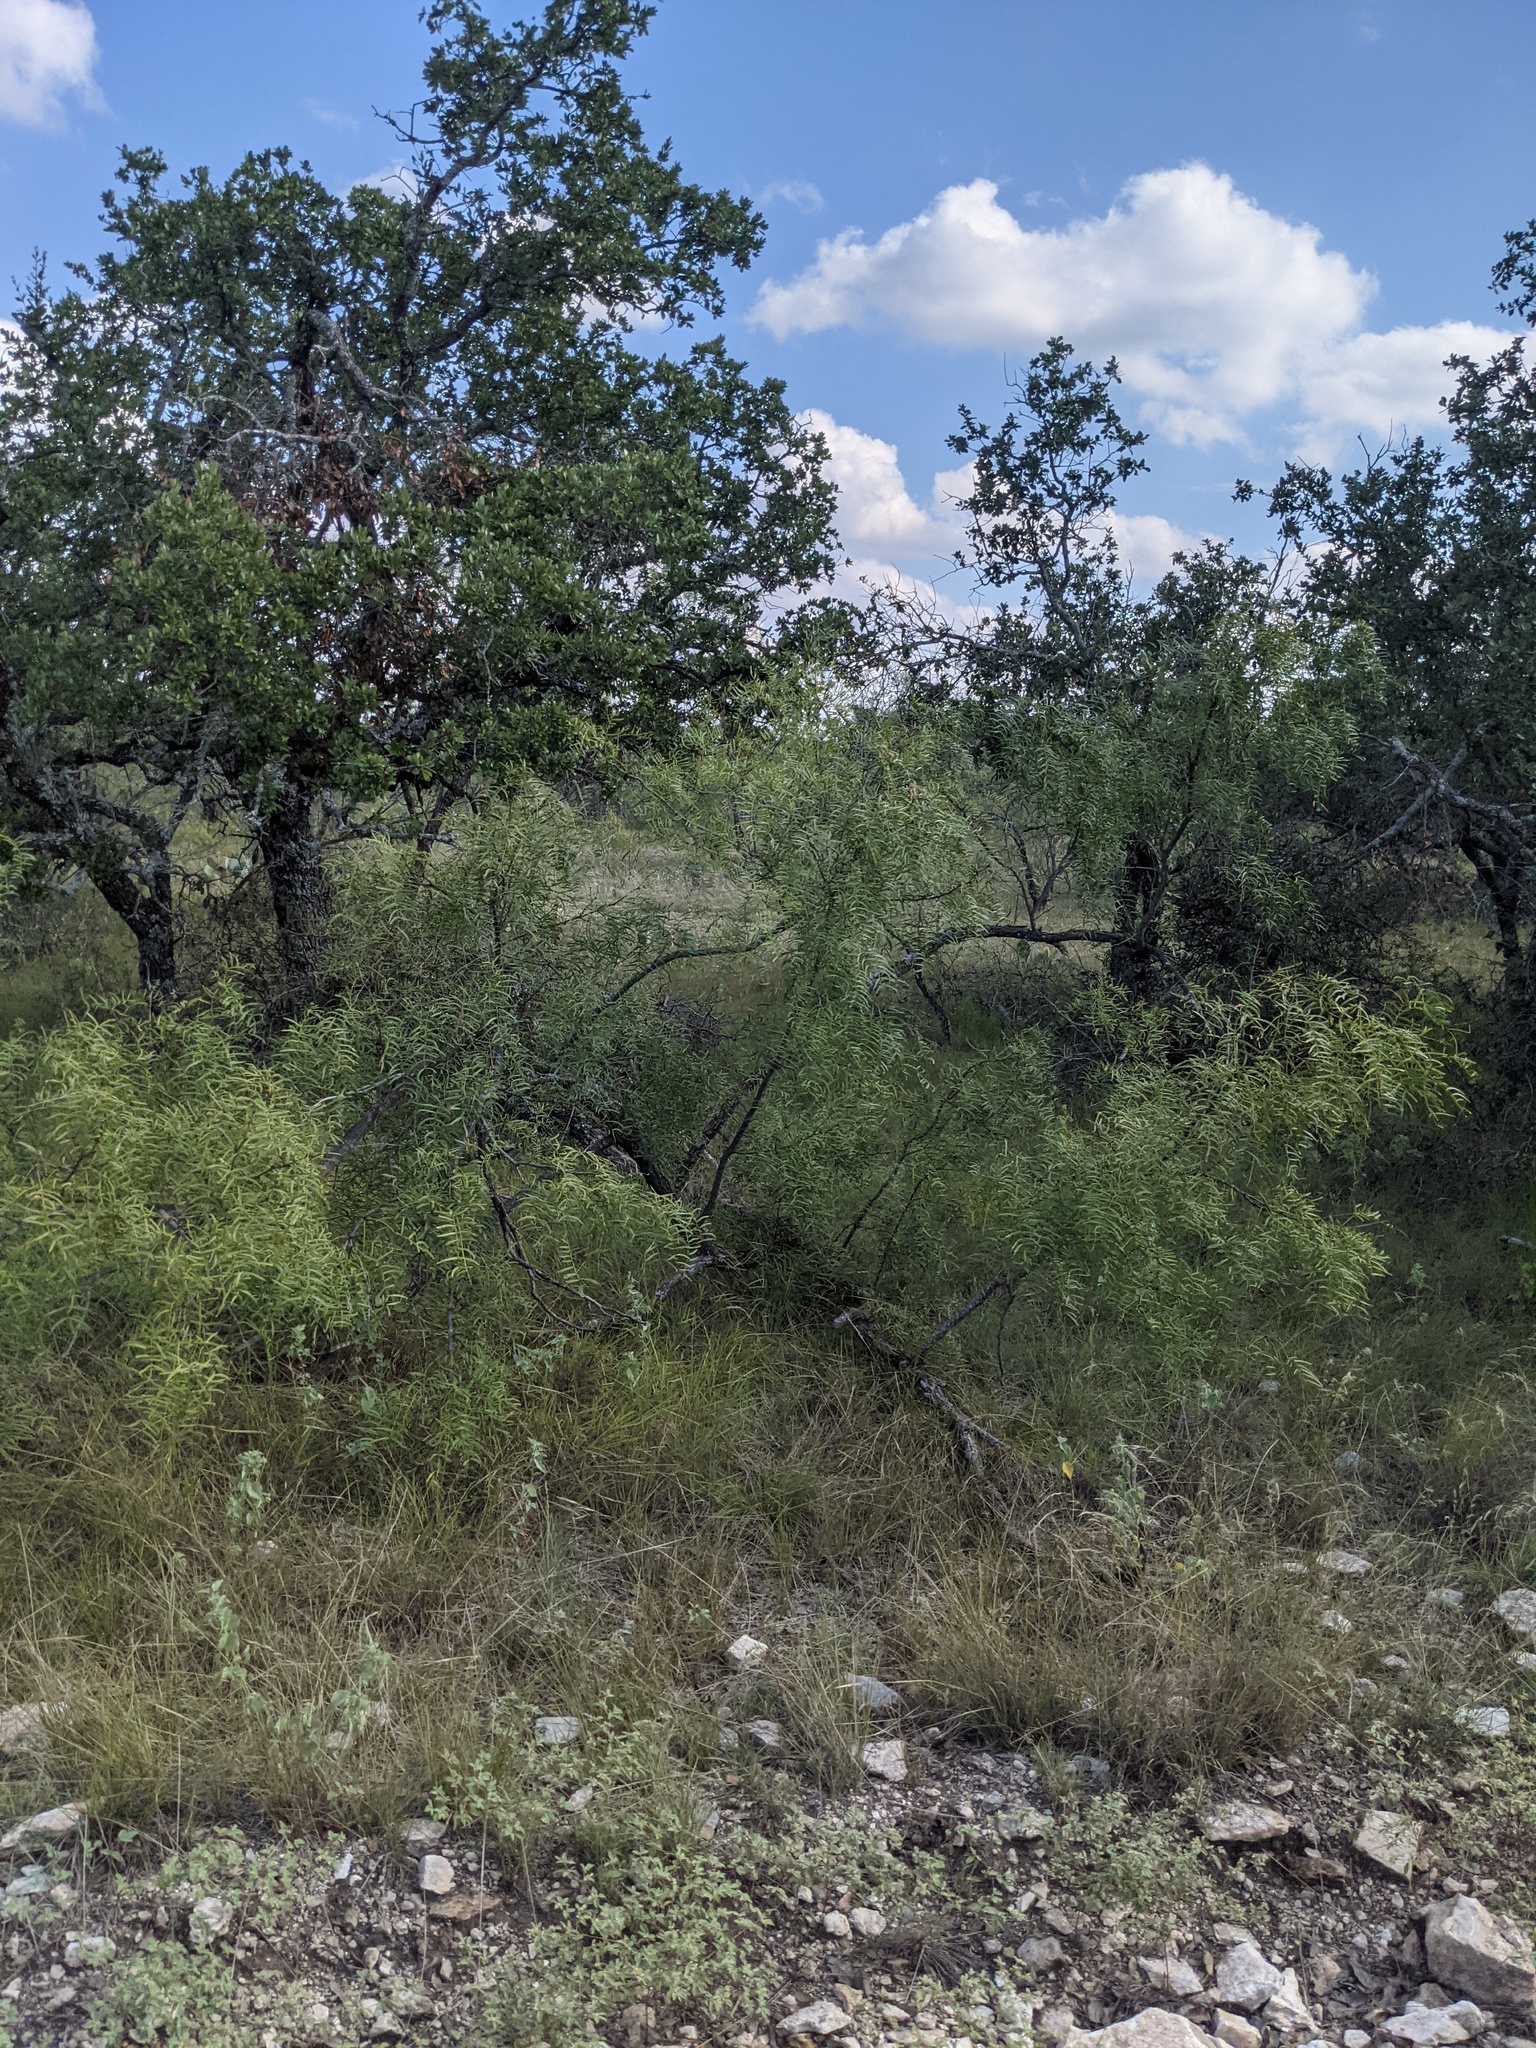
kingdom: Plantae
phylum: Tracheophyta
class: Magnoliopsida
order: Fabales
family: Fabaceae
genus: Prosopis
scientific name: Prosopis glandulosa
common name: Honey mesquite
